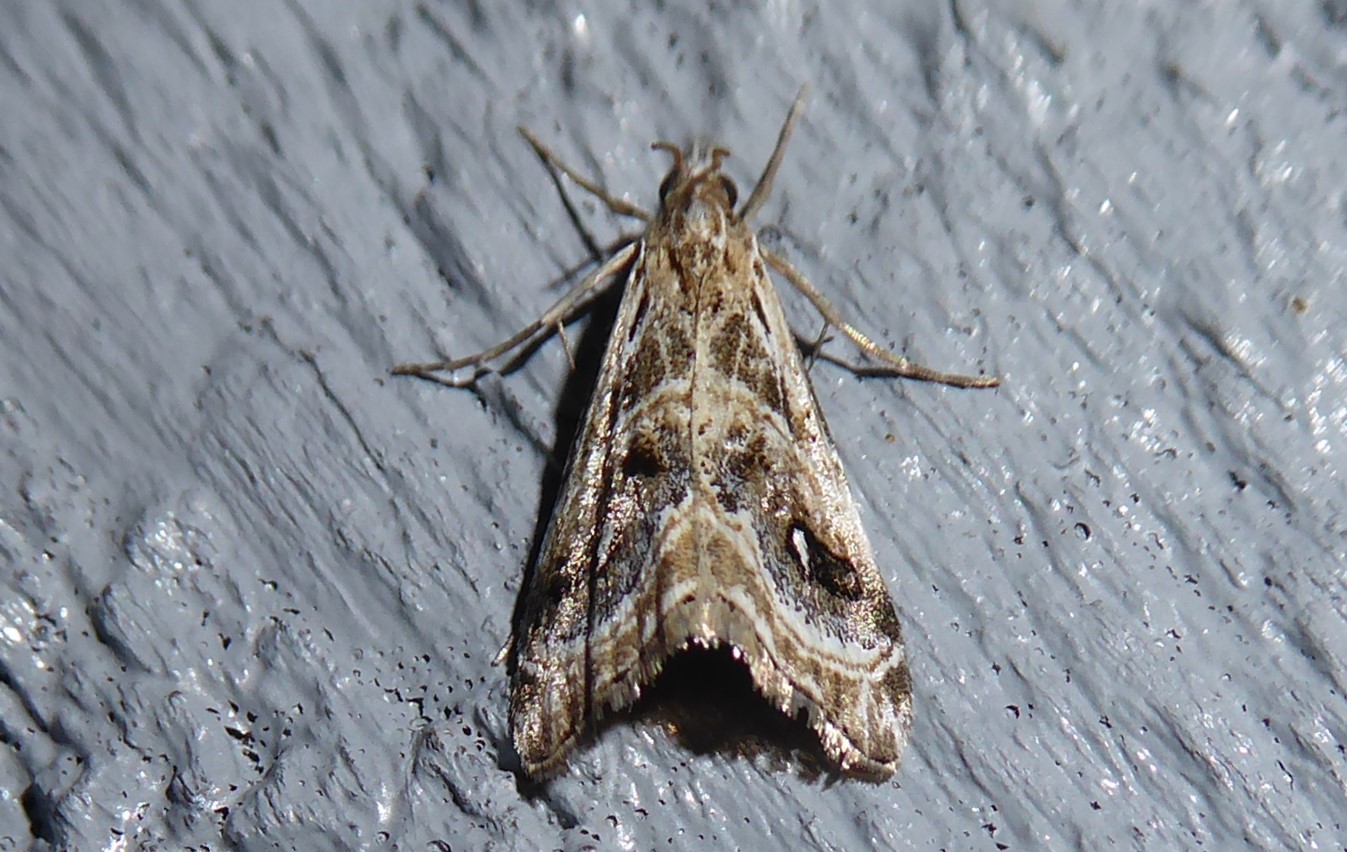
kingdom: Animalia
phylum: Arthropoda
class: Insecta
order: Lepidoptera
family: Crambidae
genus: Gadira
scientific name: Gadira acerella
